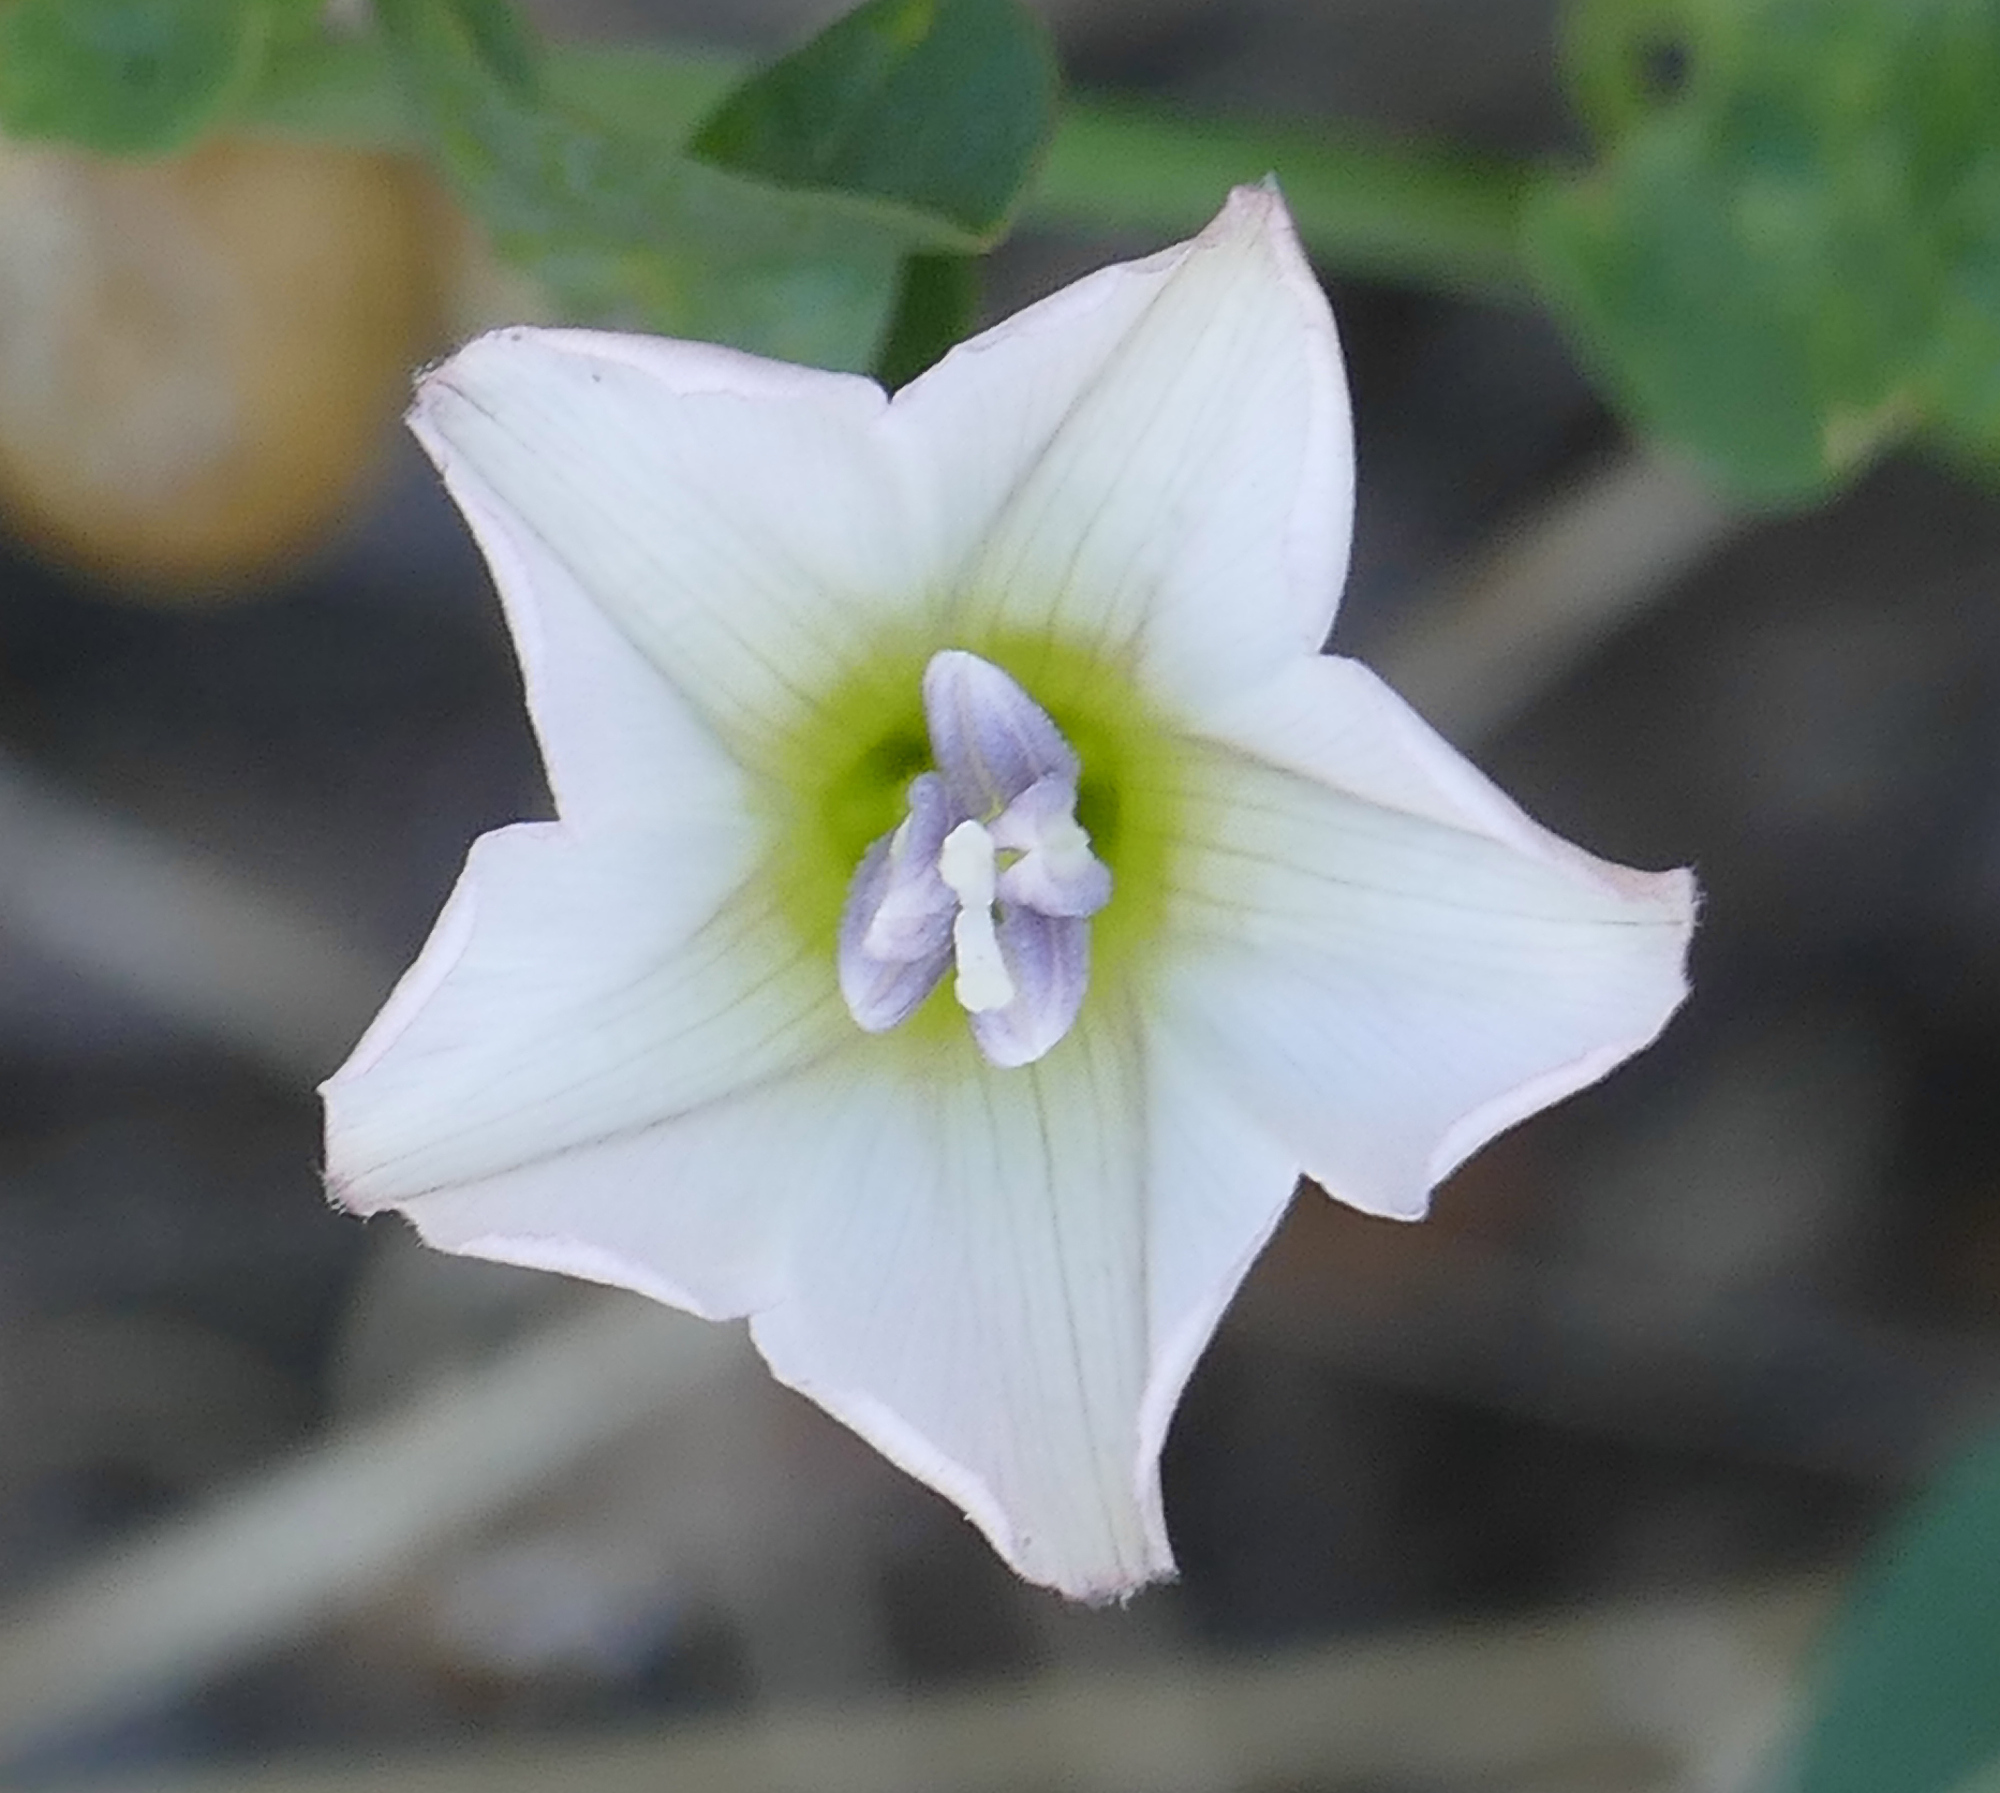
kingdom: Plantae
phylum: Tracheophyta
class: Magnoliopsida
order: Solanales
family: Convolvulaceae
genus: Convolvulus
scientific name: Convolvulus arvensis
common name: Field bindweed
